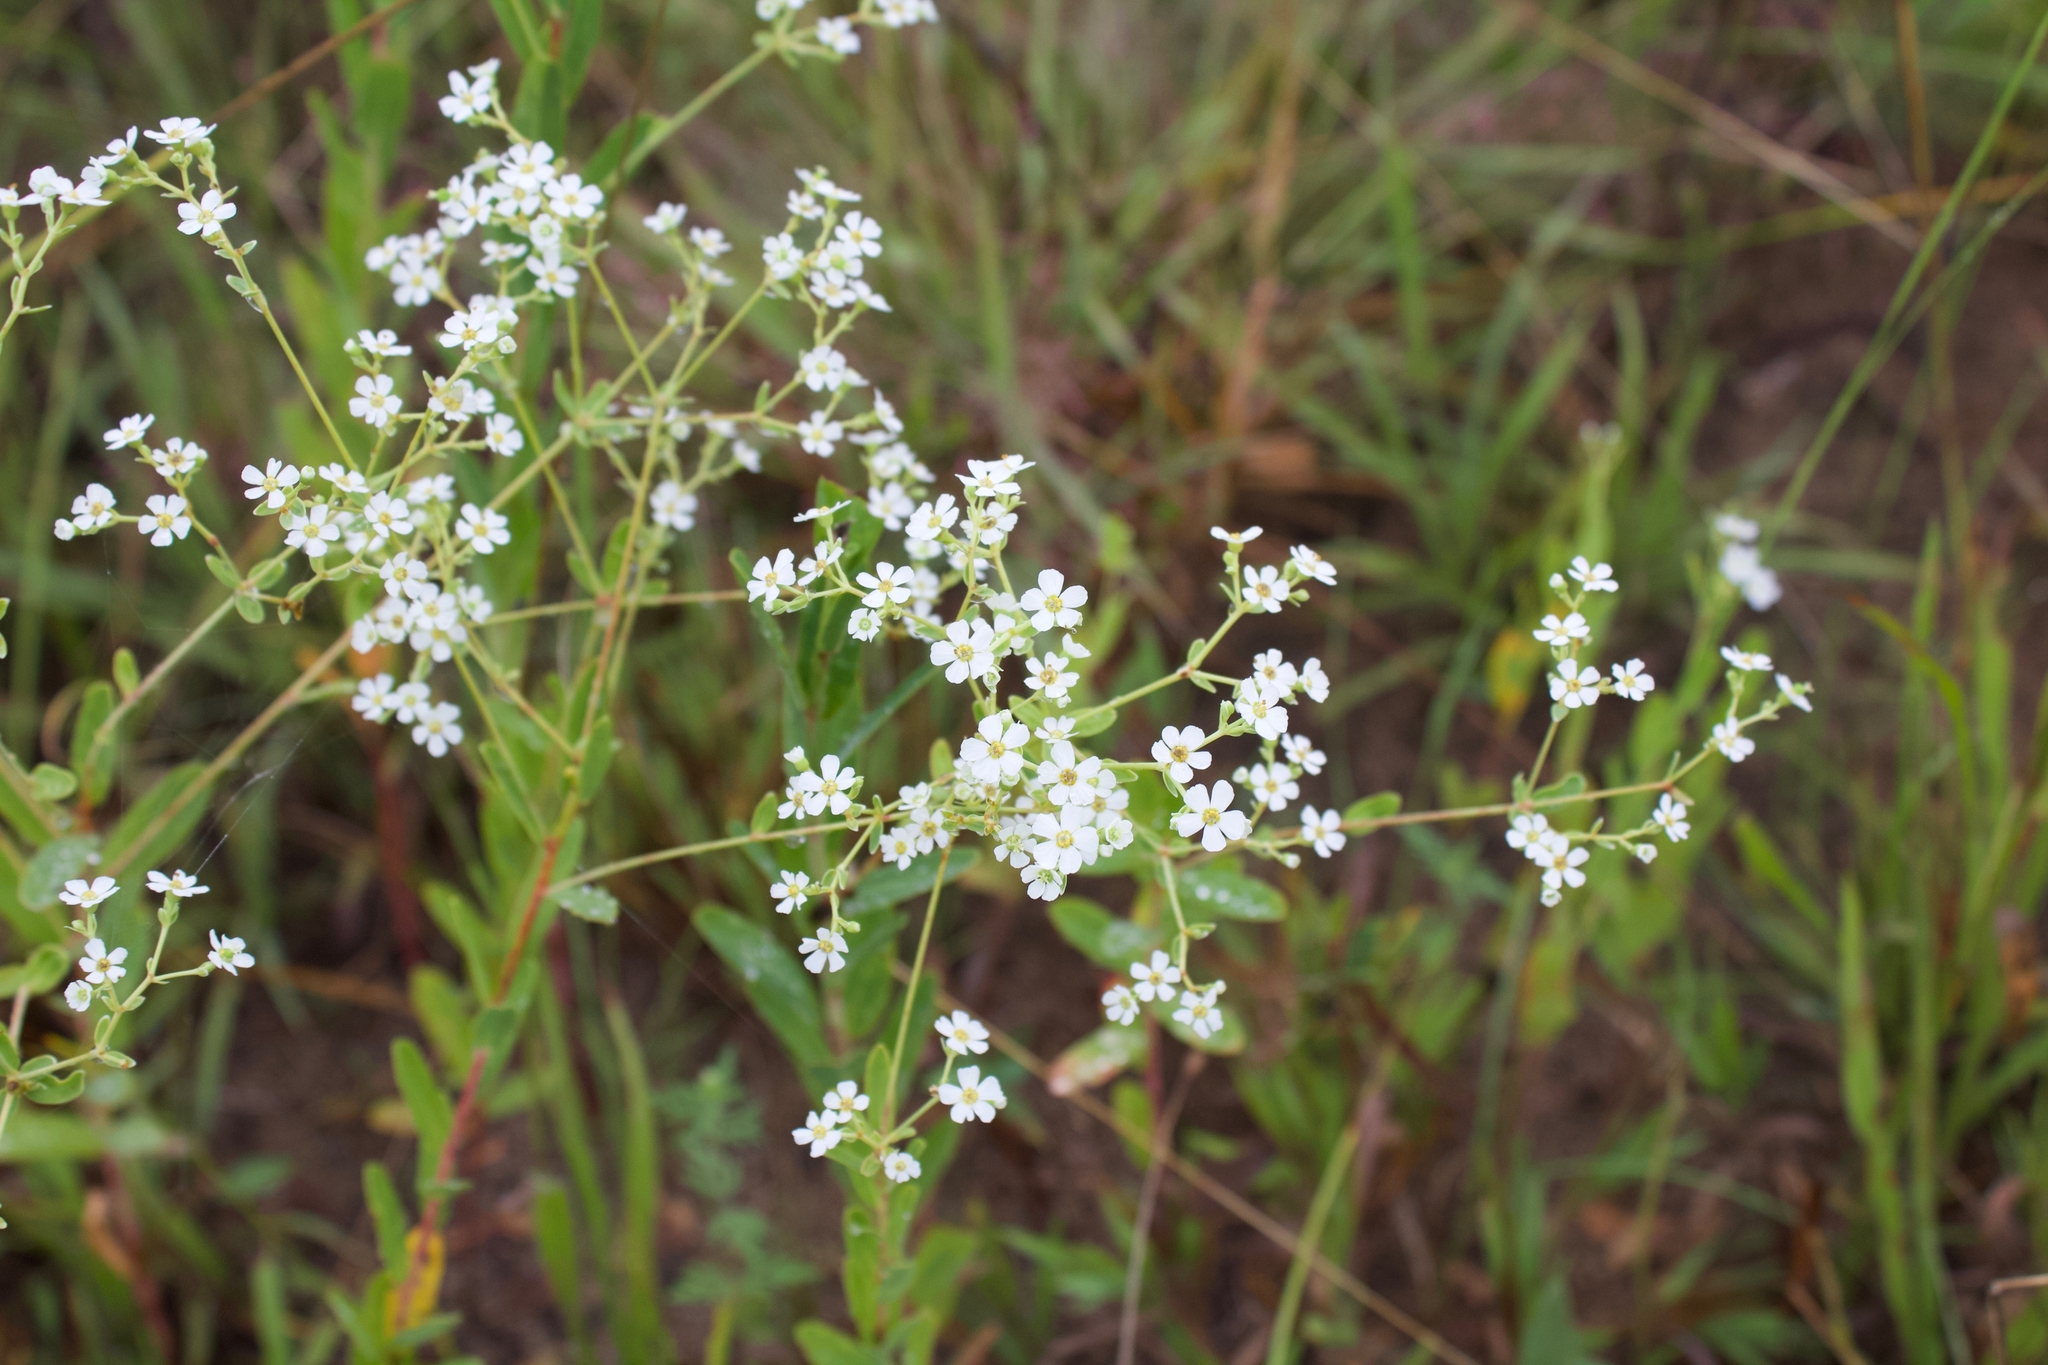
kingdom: Plantae
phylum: Tracheophyta
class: Magnoliopsida
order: Malpighiales
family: Euphorbiaceae
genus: Euphorbia
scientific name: Euphorbia corollata
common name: Flowering spurge
